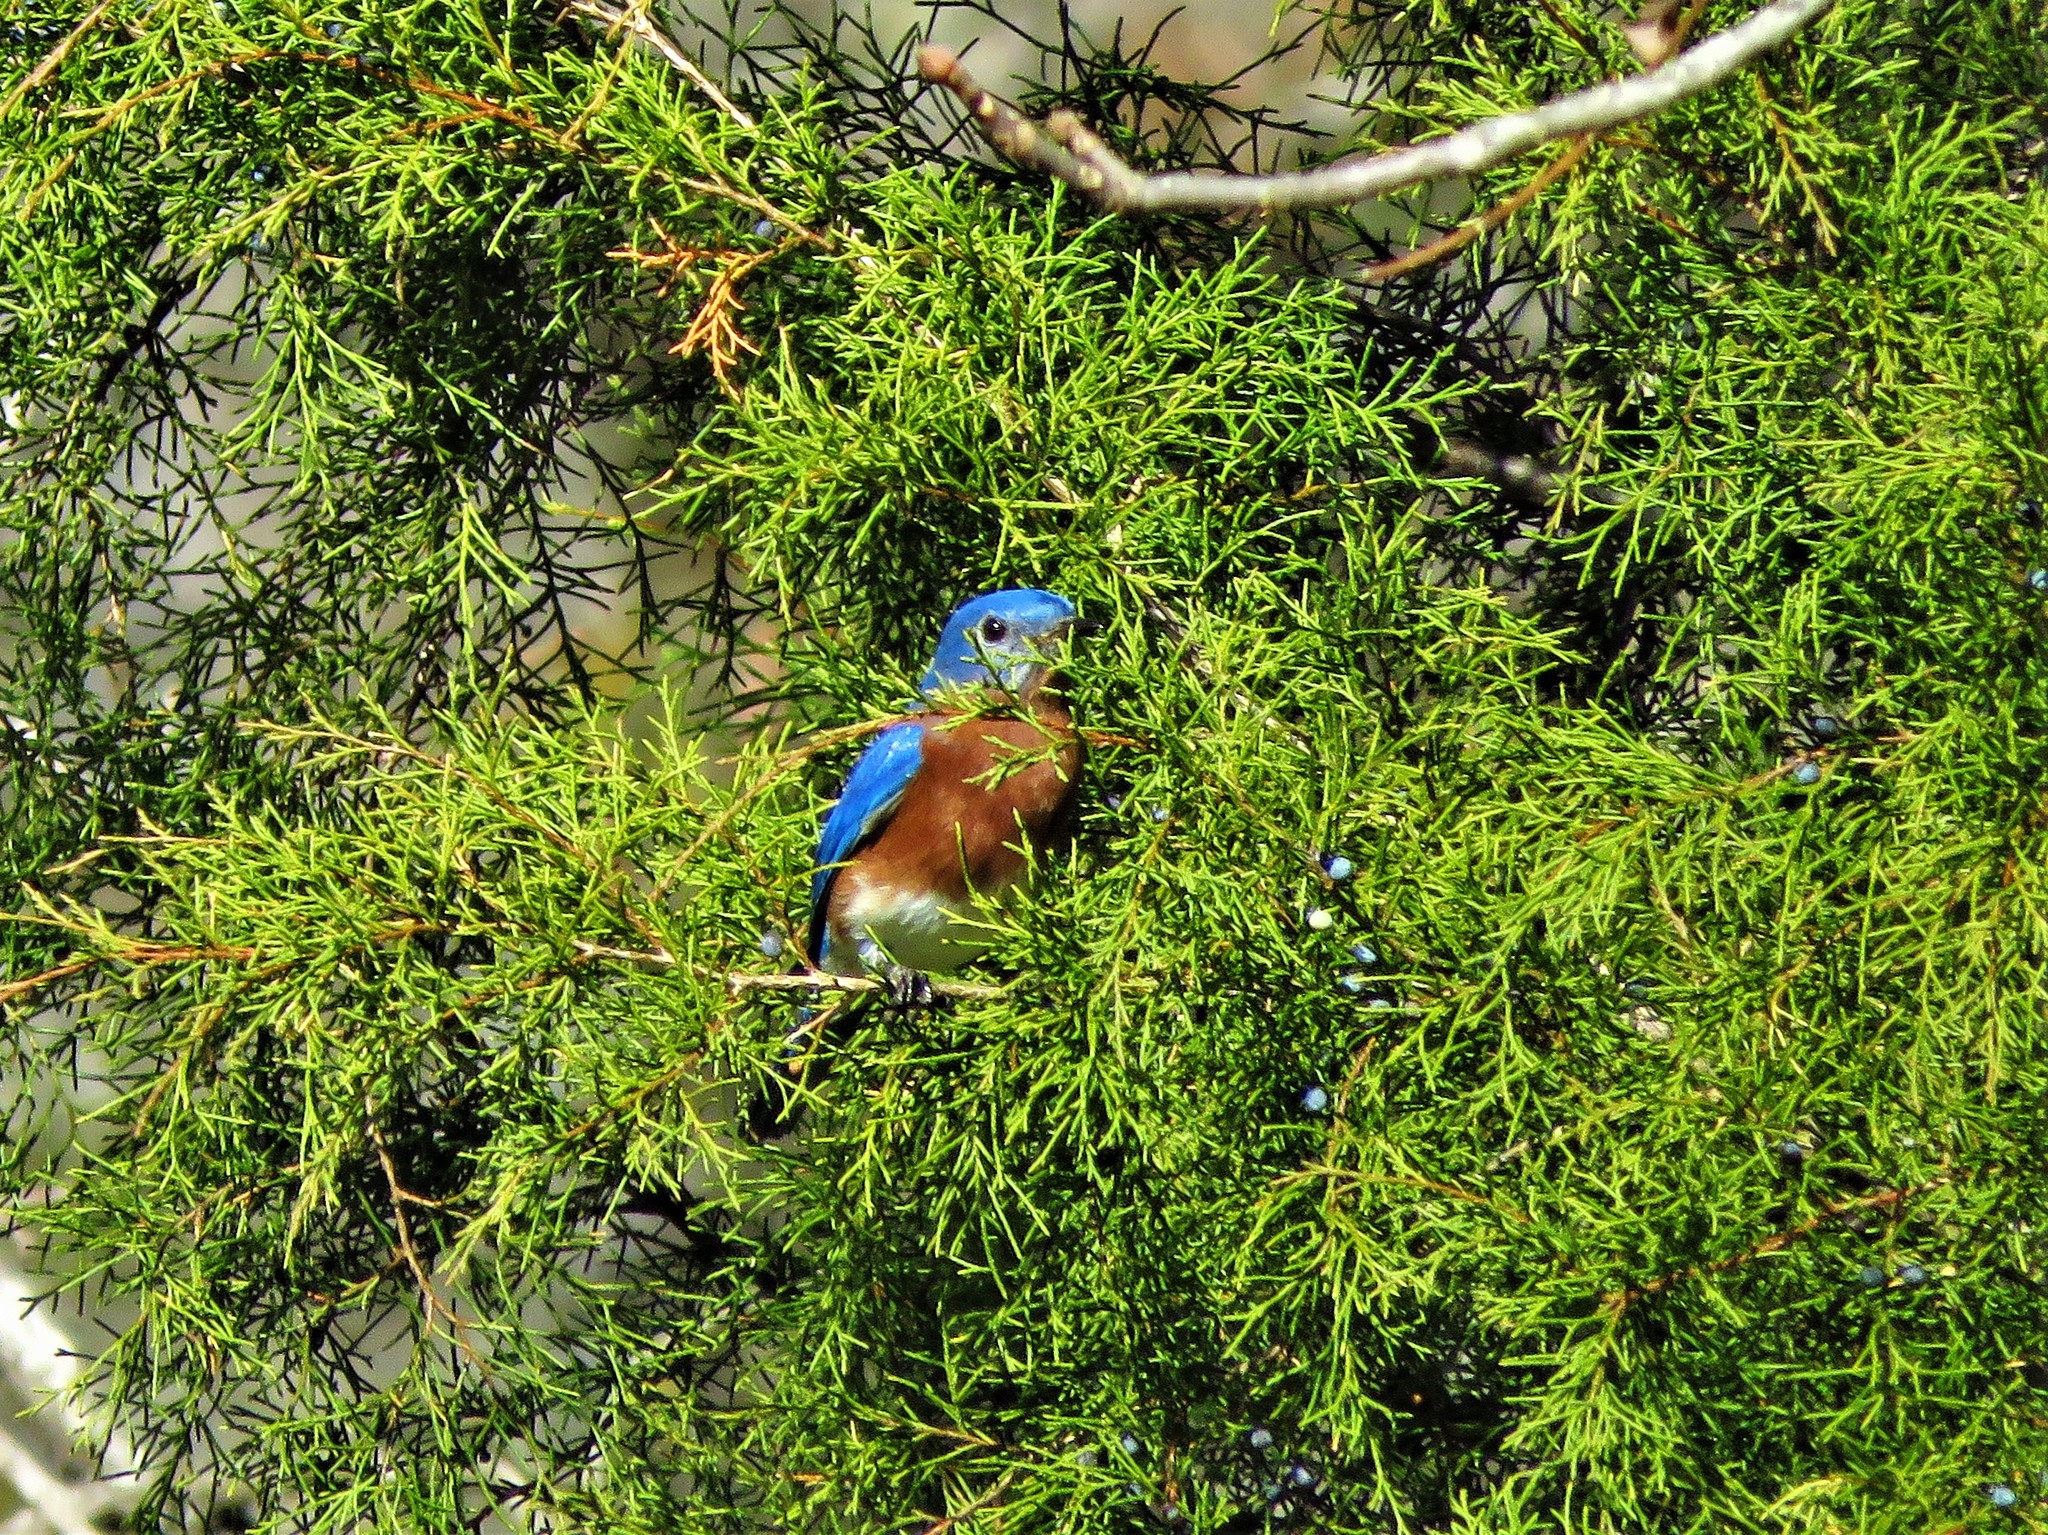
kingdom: Animalia
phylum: Chordata
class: Aves
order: Passeriformes
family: Turdidae
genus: Sialia
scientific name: Sialia sialis
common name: Eastern bluebird
